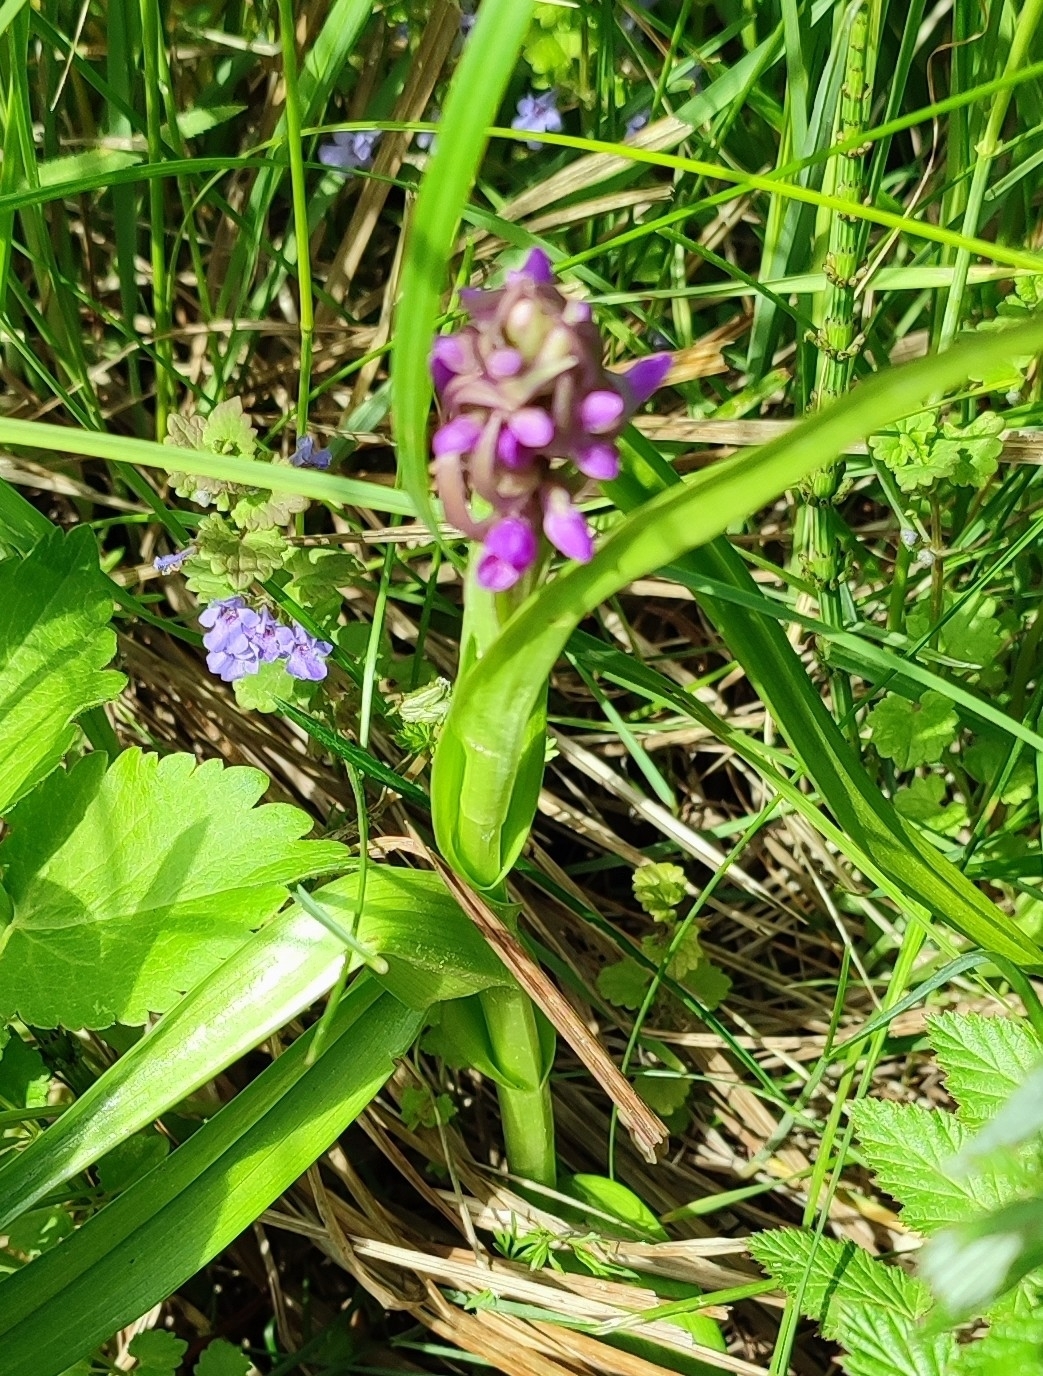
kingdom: Plantae
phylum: Tracheophyta
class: Liliopsida
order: Asparagales
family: Orchidaceae
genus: Dactylorhiza
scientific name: Dactylorhiza incarnata
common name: Early marsh-orchid
